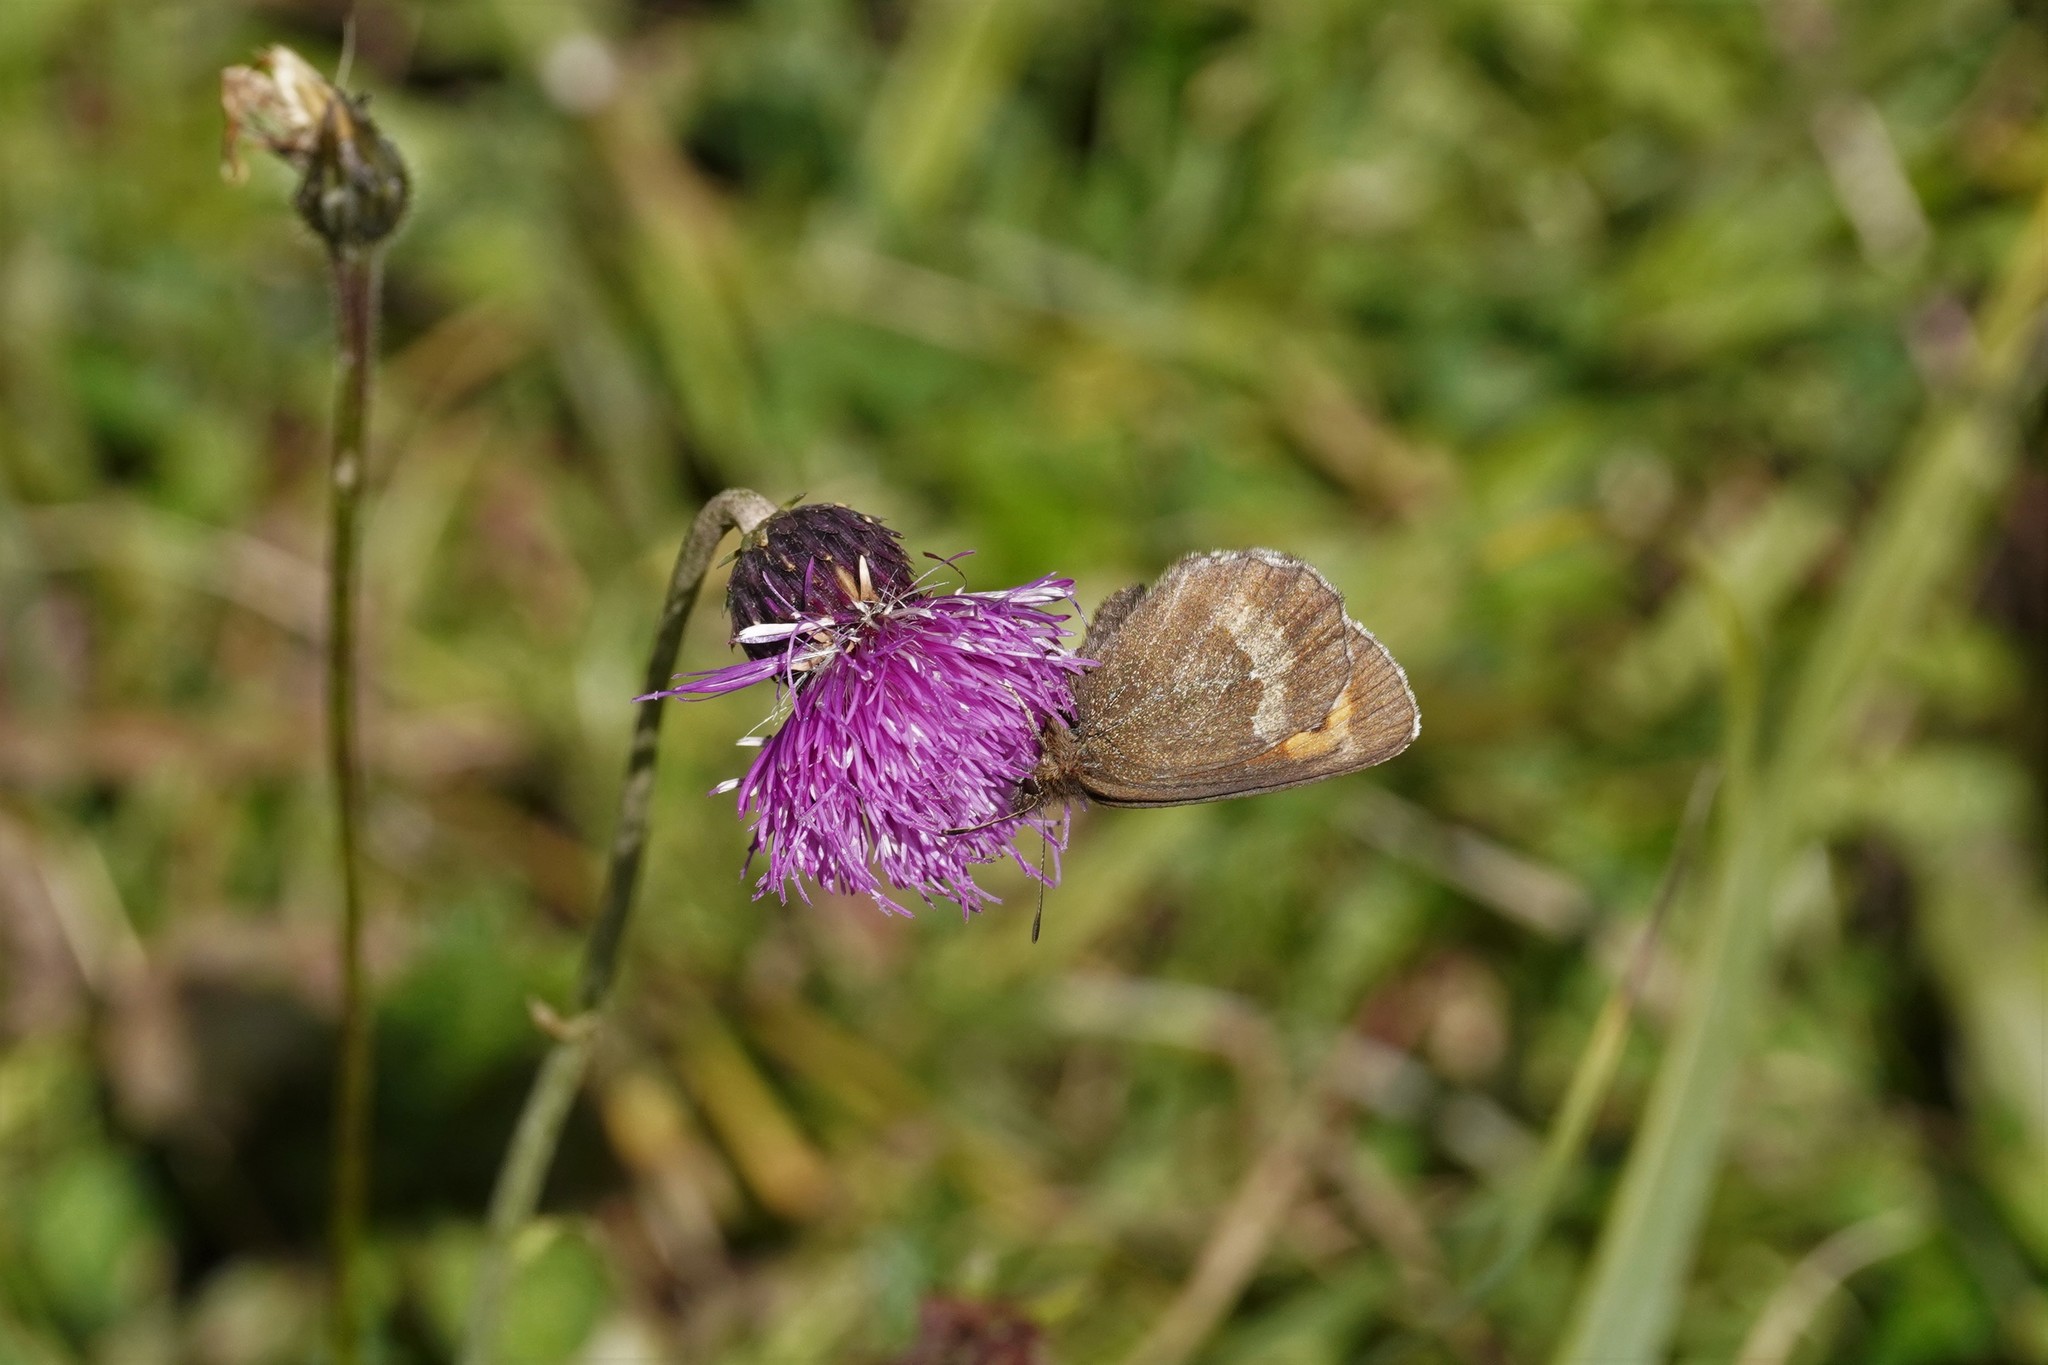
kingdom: Animalia
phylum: Arthropoda
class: Insecta
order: Lepidoptera
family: Nymphalidae
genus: Erebia
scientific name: Erebia euryale
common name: Large ringlet
